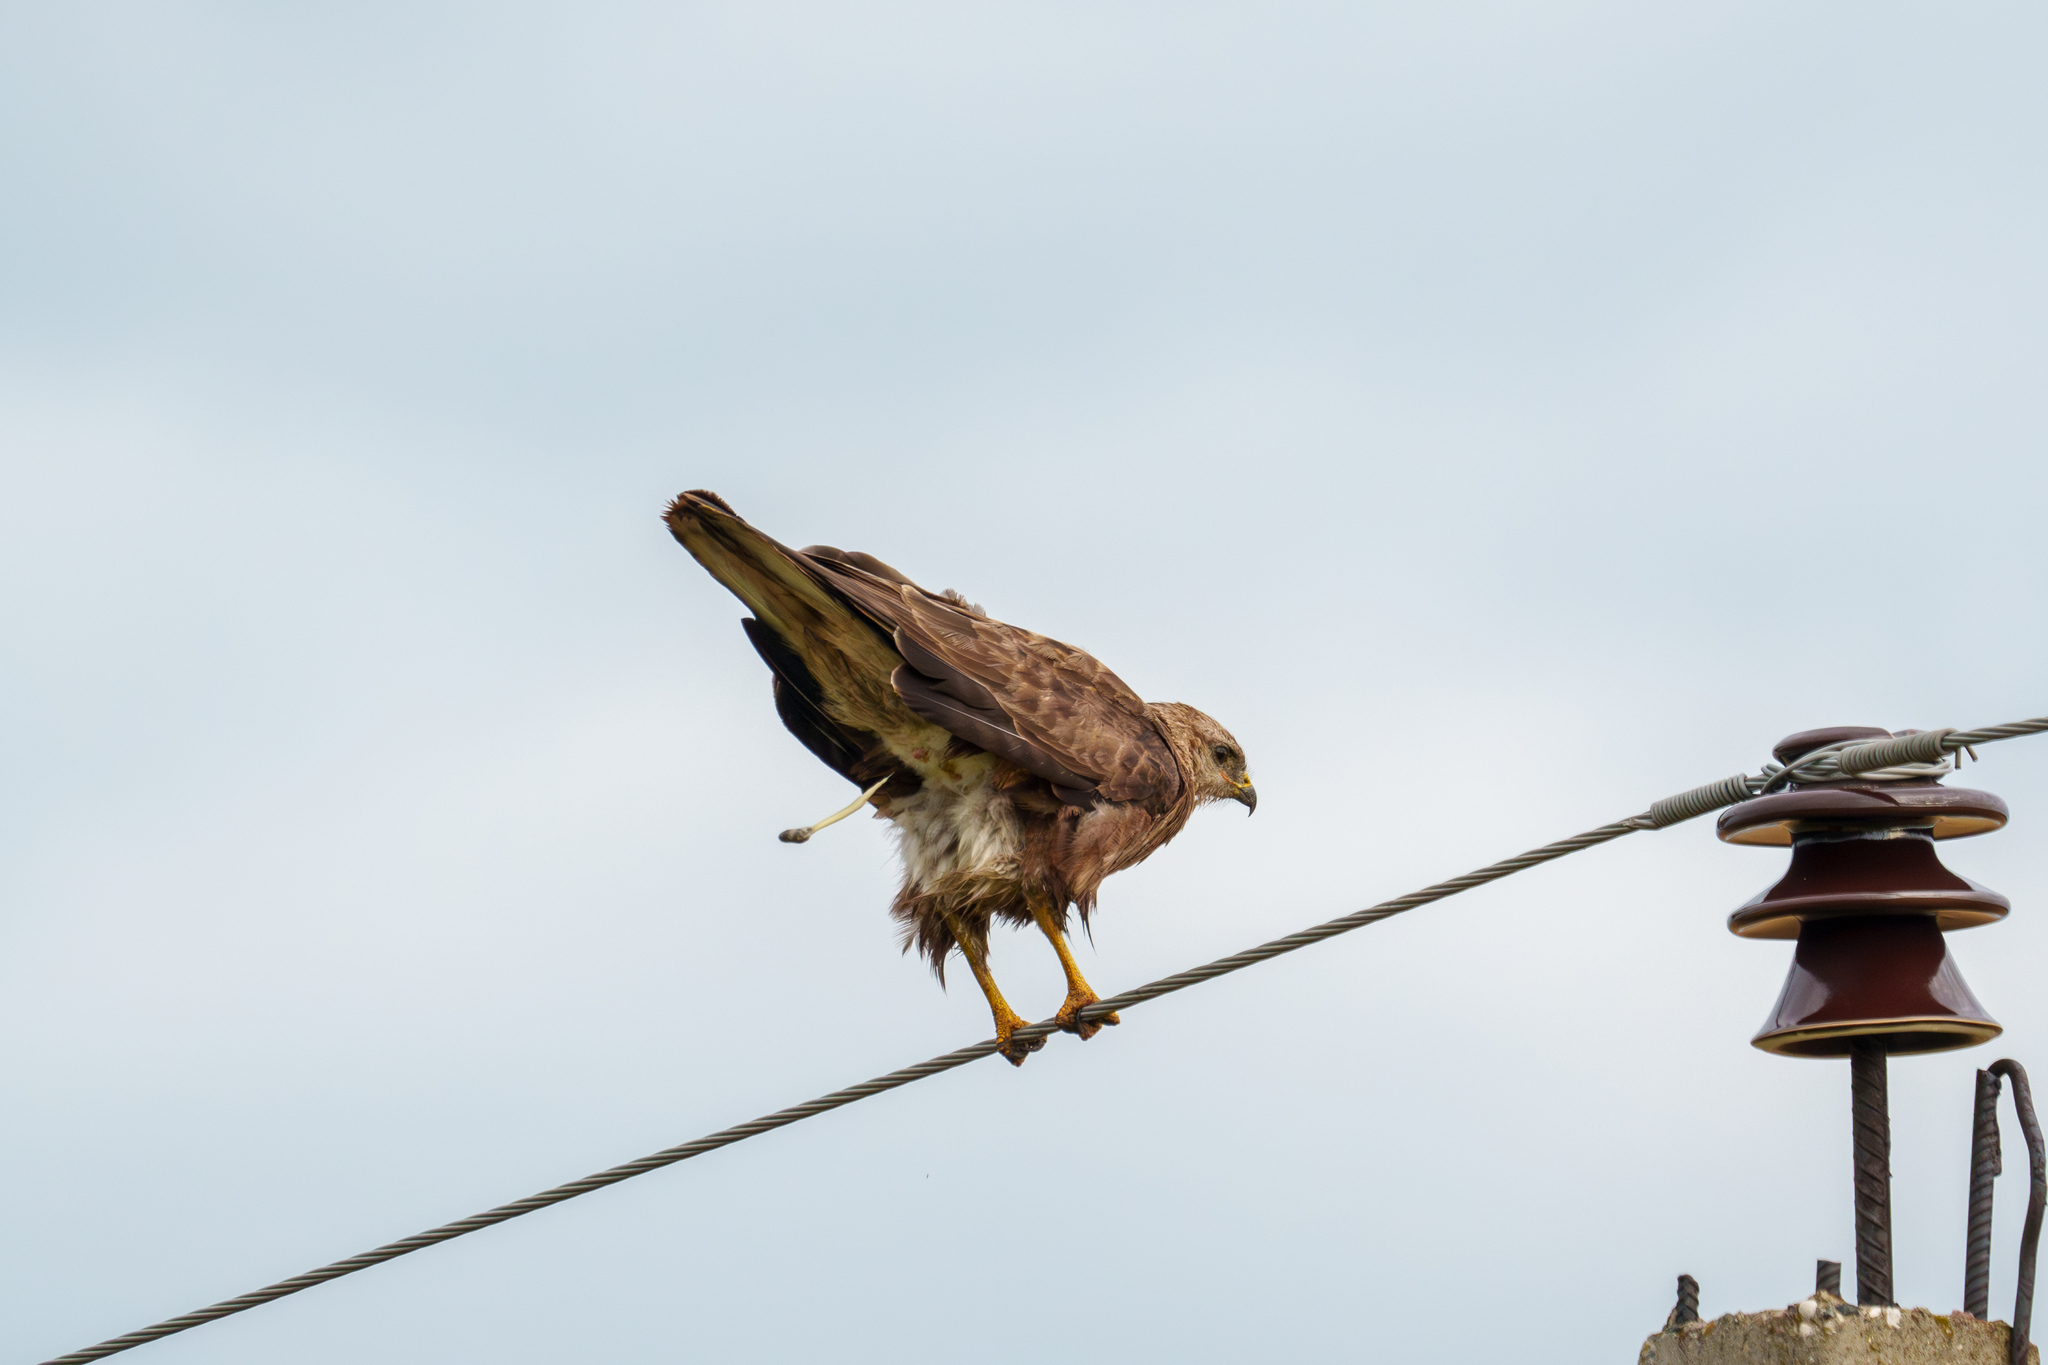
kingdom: Animalia
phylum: Chordata
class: Aves
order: Accipitriformes
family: Accipitridae
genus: Buteo
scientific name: Buteo buteo
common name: Common buzzard
